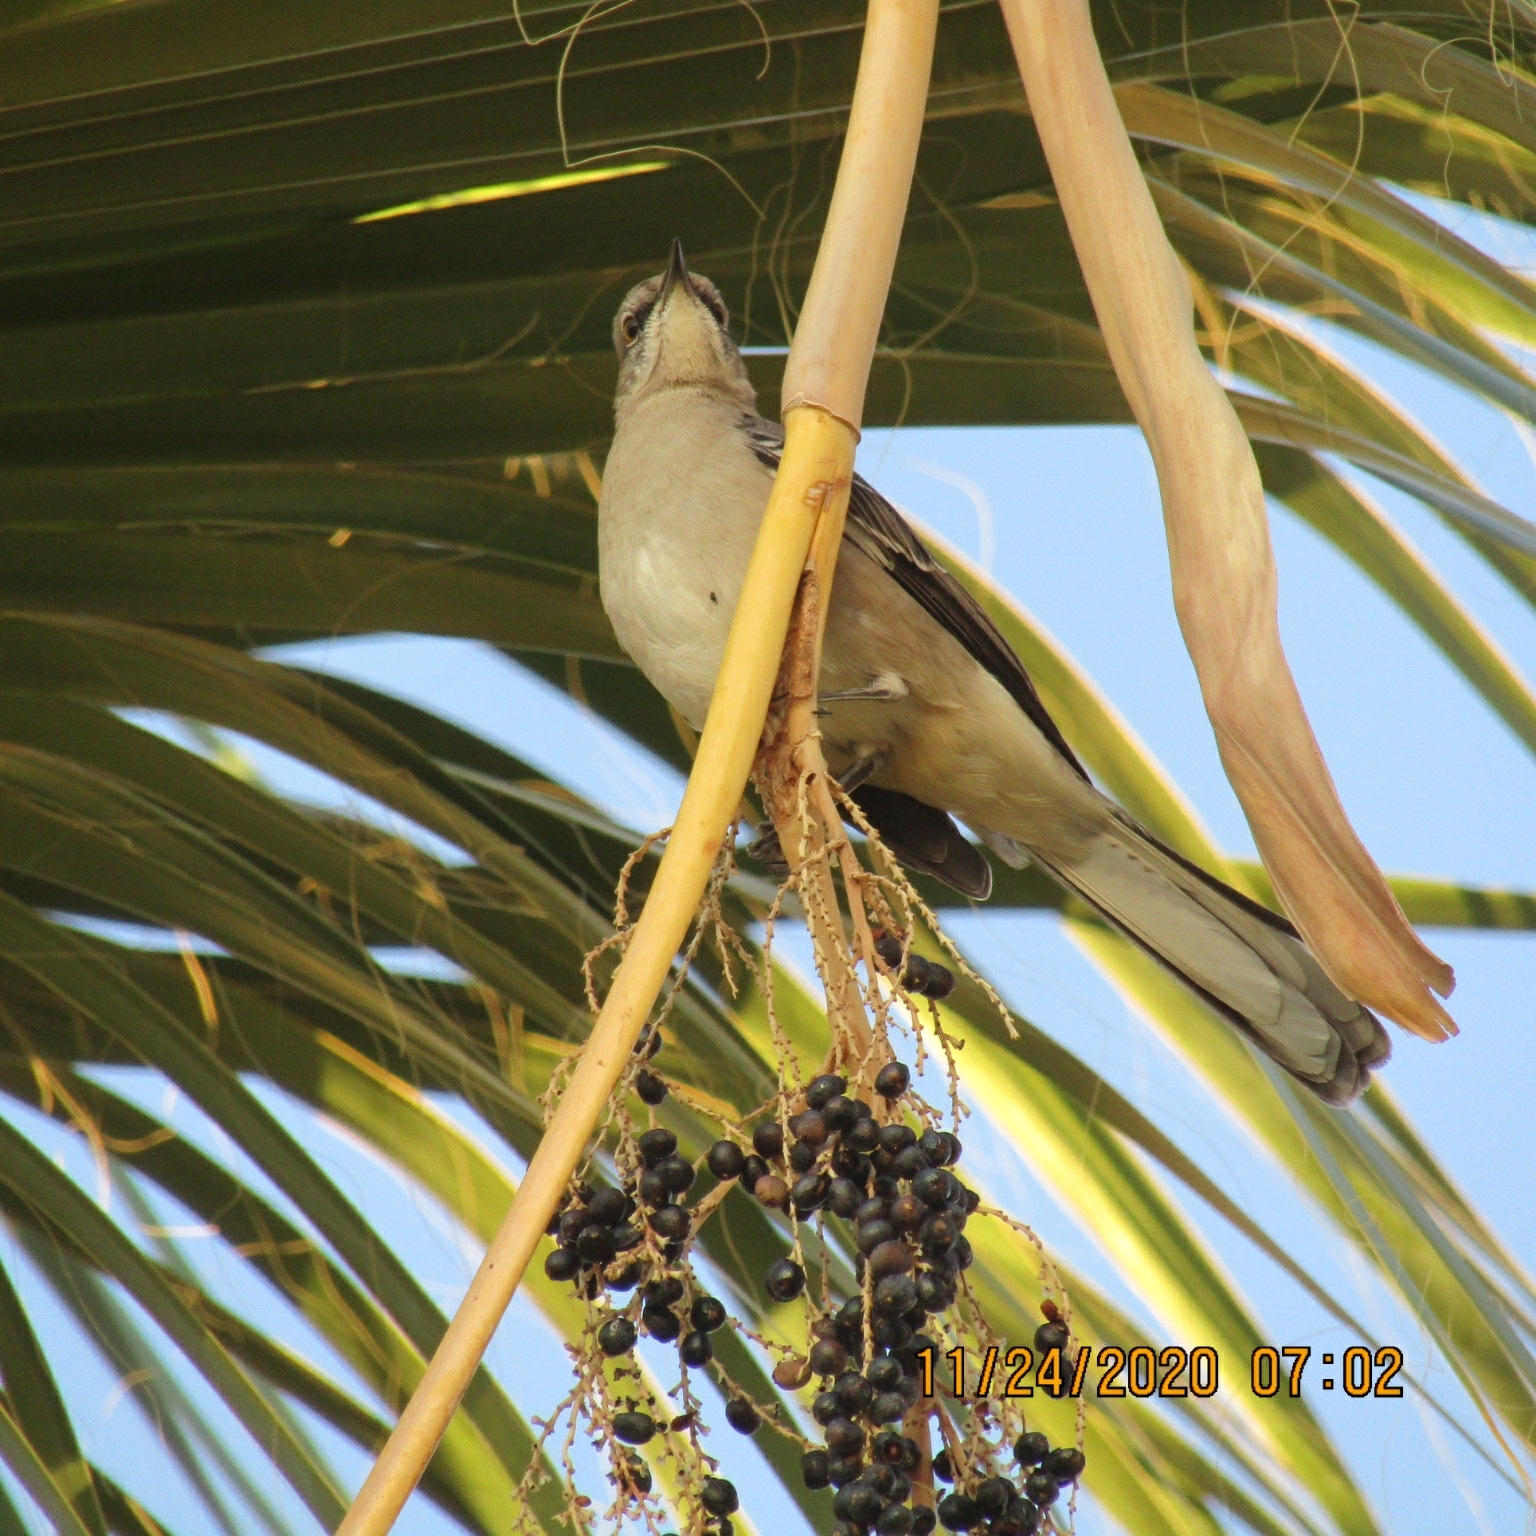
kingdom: Animalia
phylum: Chordata
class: Aves
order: Passeriformes
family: Mimidae
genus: Mimus
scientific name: Mimus polyglottos
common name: Northern mockingbird
